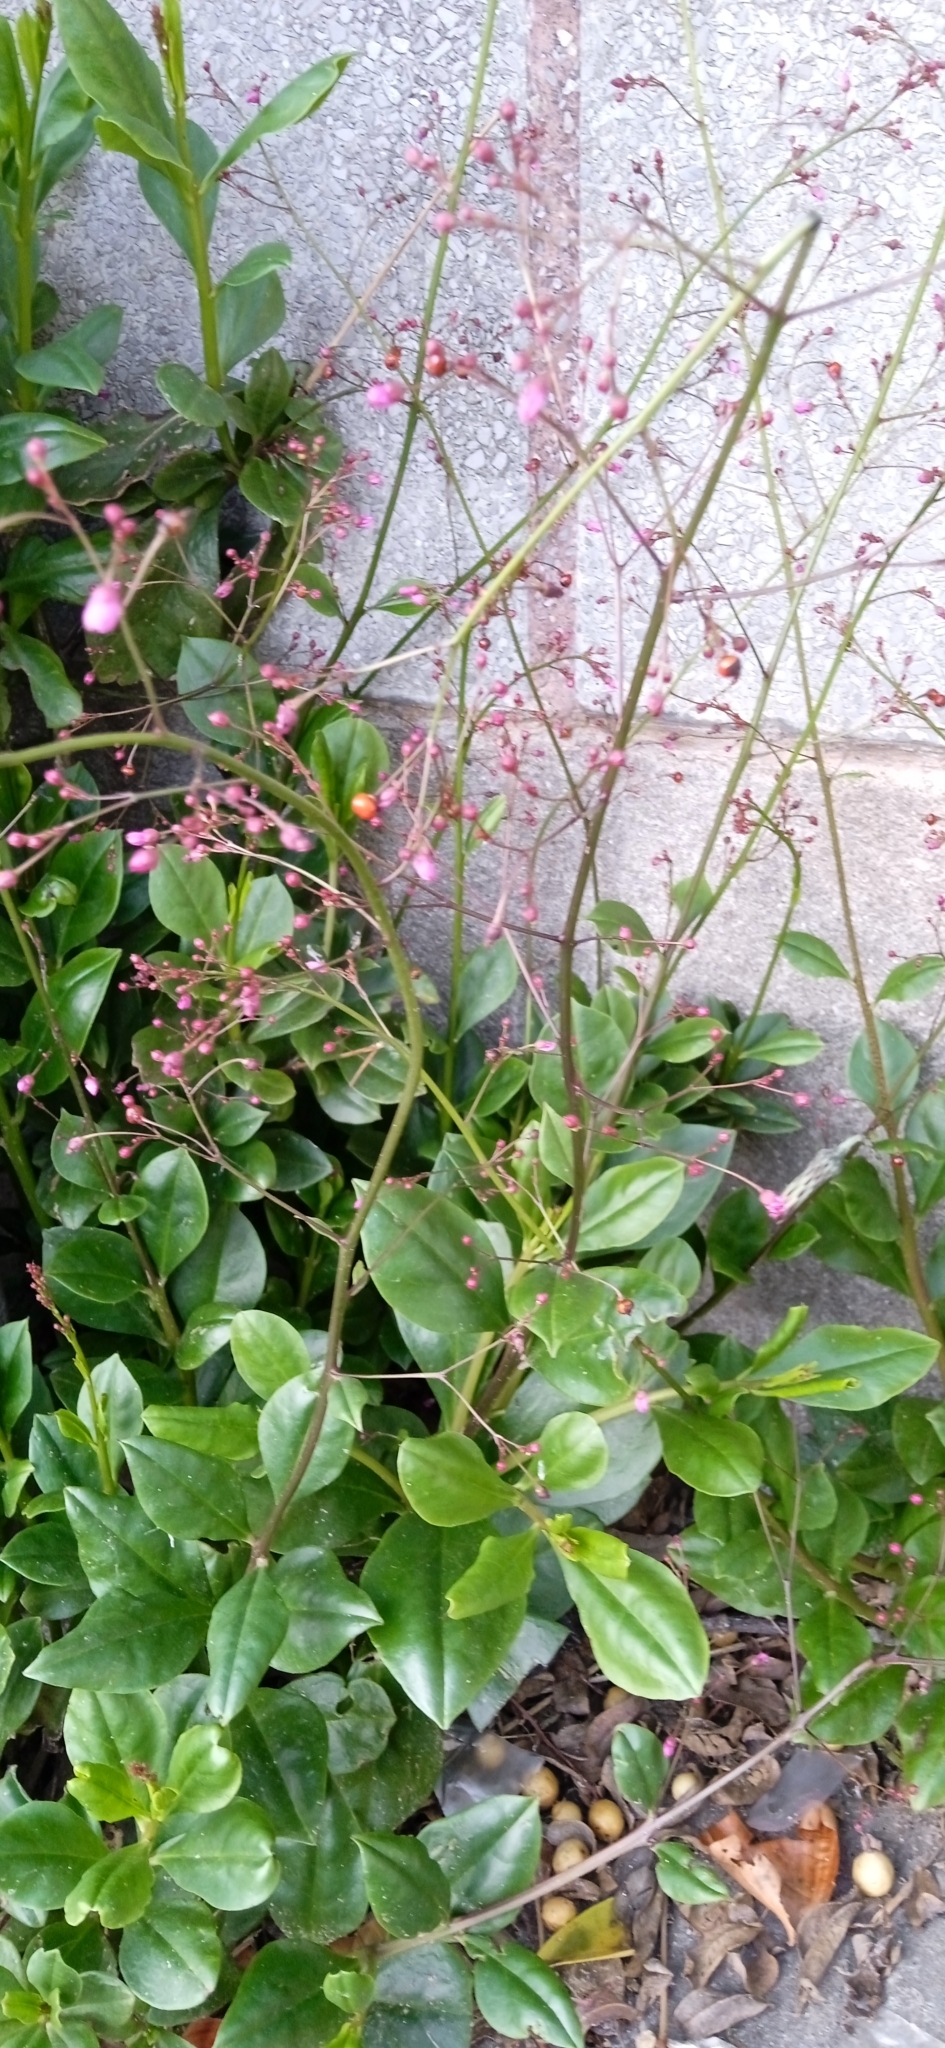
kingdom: Plantae
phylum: Tracheophyta
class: Magnoliopsida
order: Caryophyllales
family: Talinaceae
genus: Talinum
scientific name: Talinum paniculatum
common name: Jewels of opar
